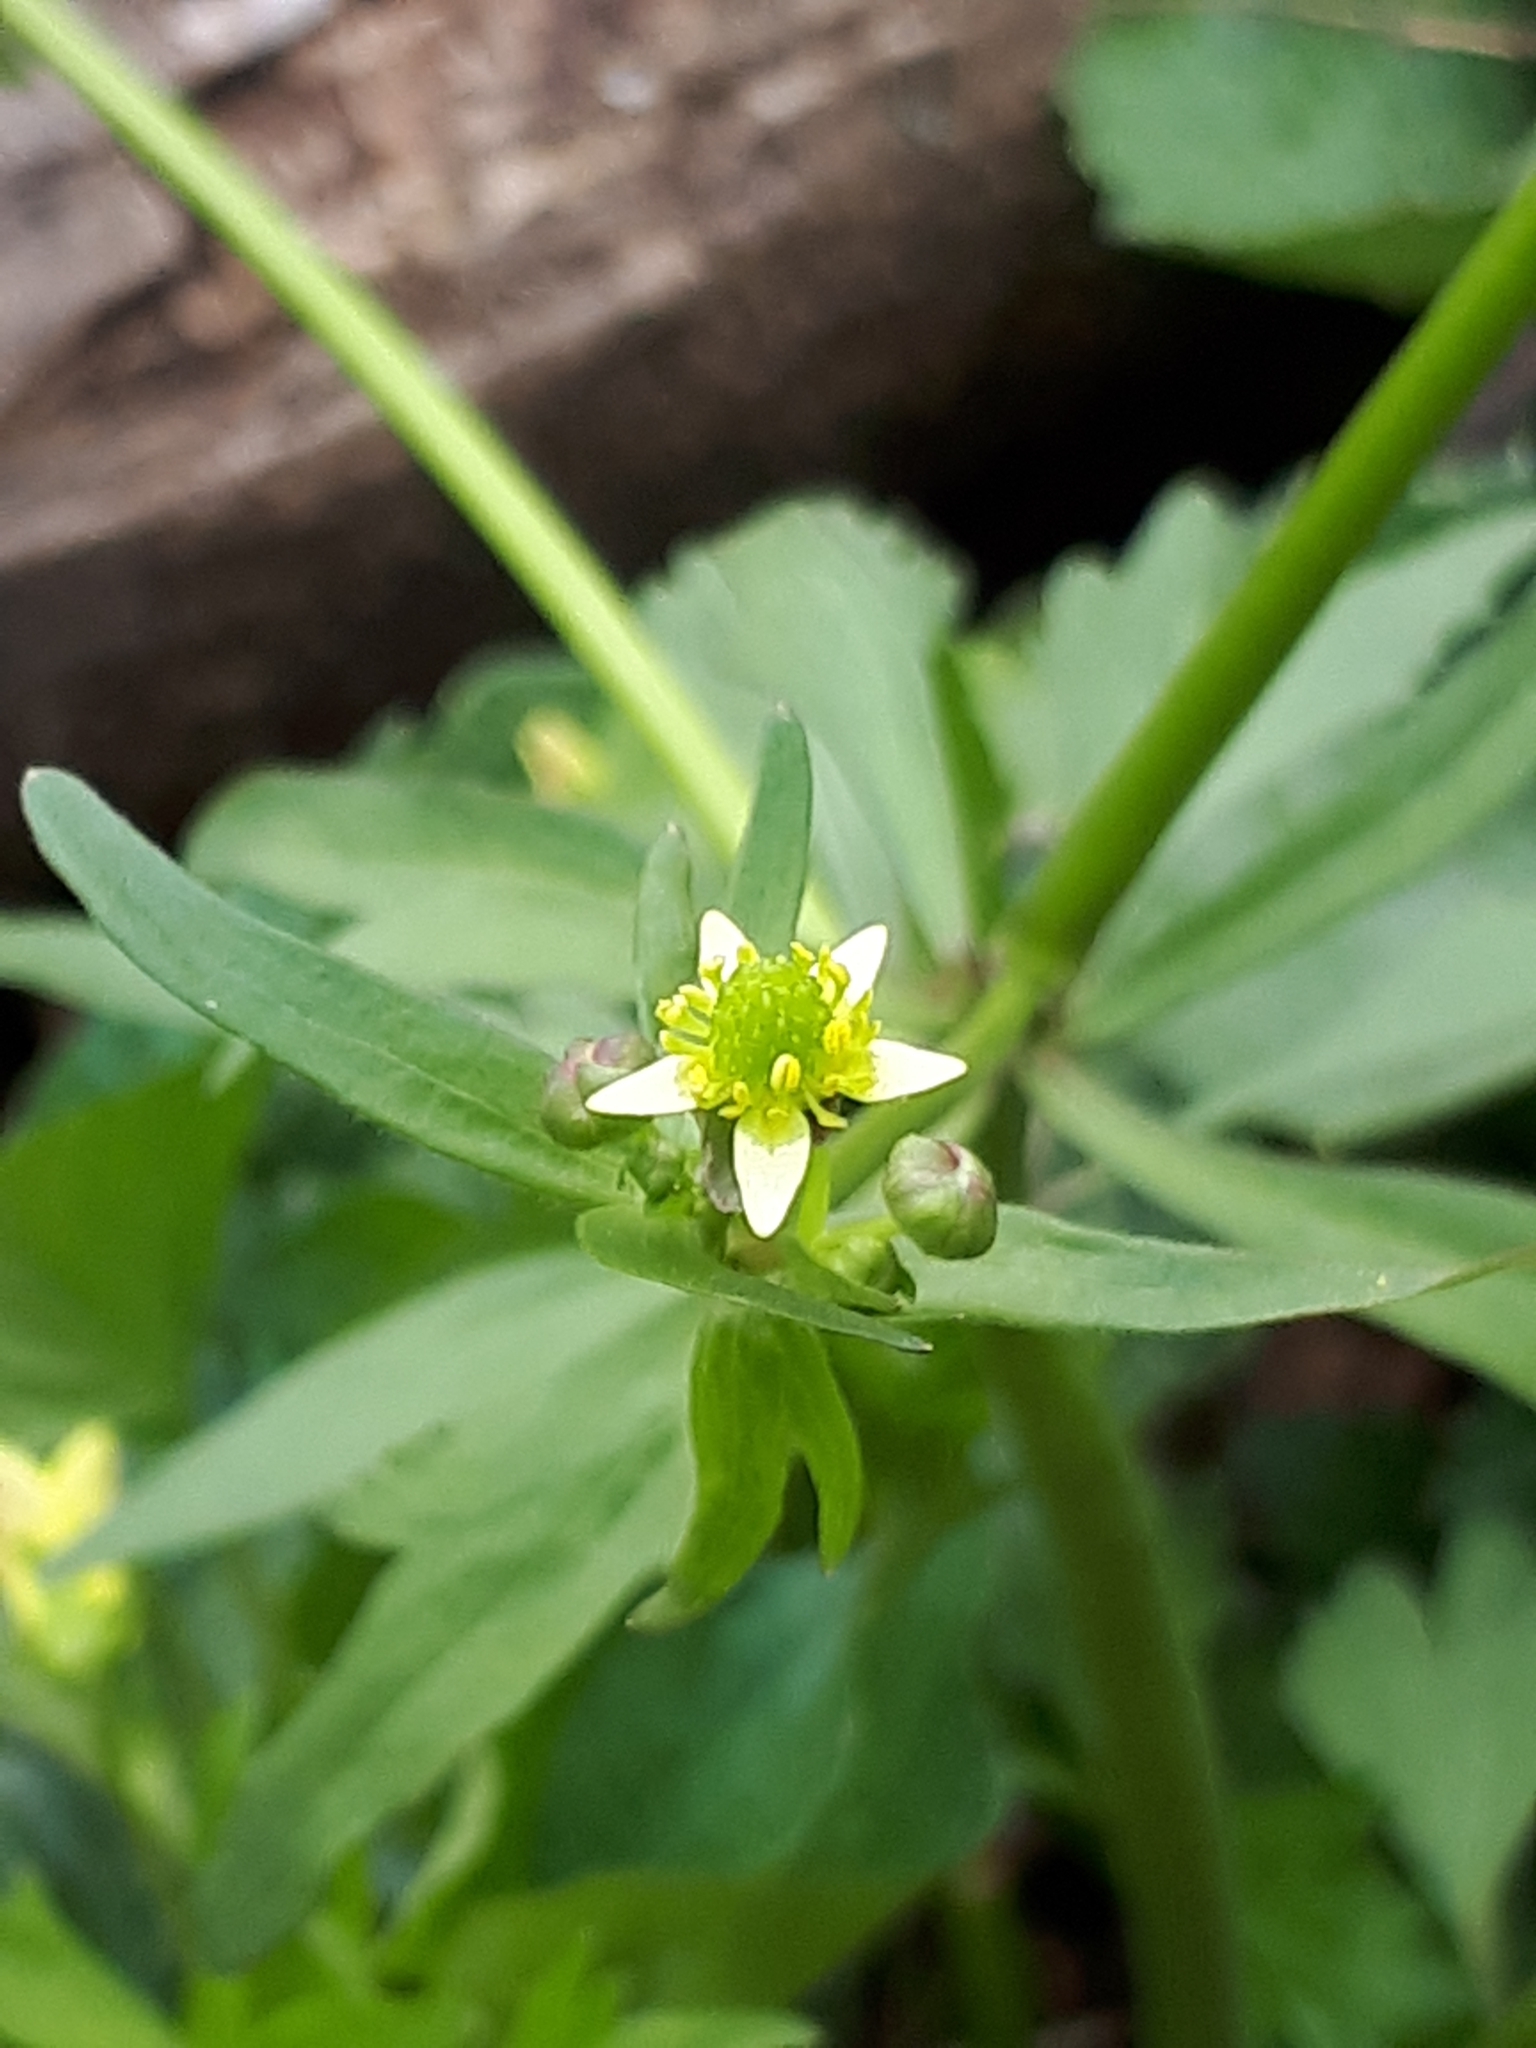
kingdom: Plantae
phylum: Tracheophyta
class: Magnoliopsida
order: Ranunculales
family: Ranunculaceae
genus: Ranunculus
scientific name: Ranunculus abortivus
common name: Early wood buttercup
